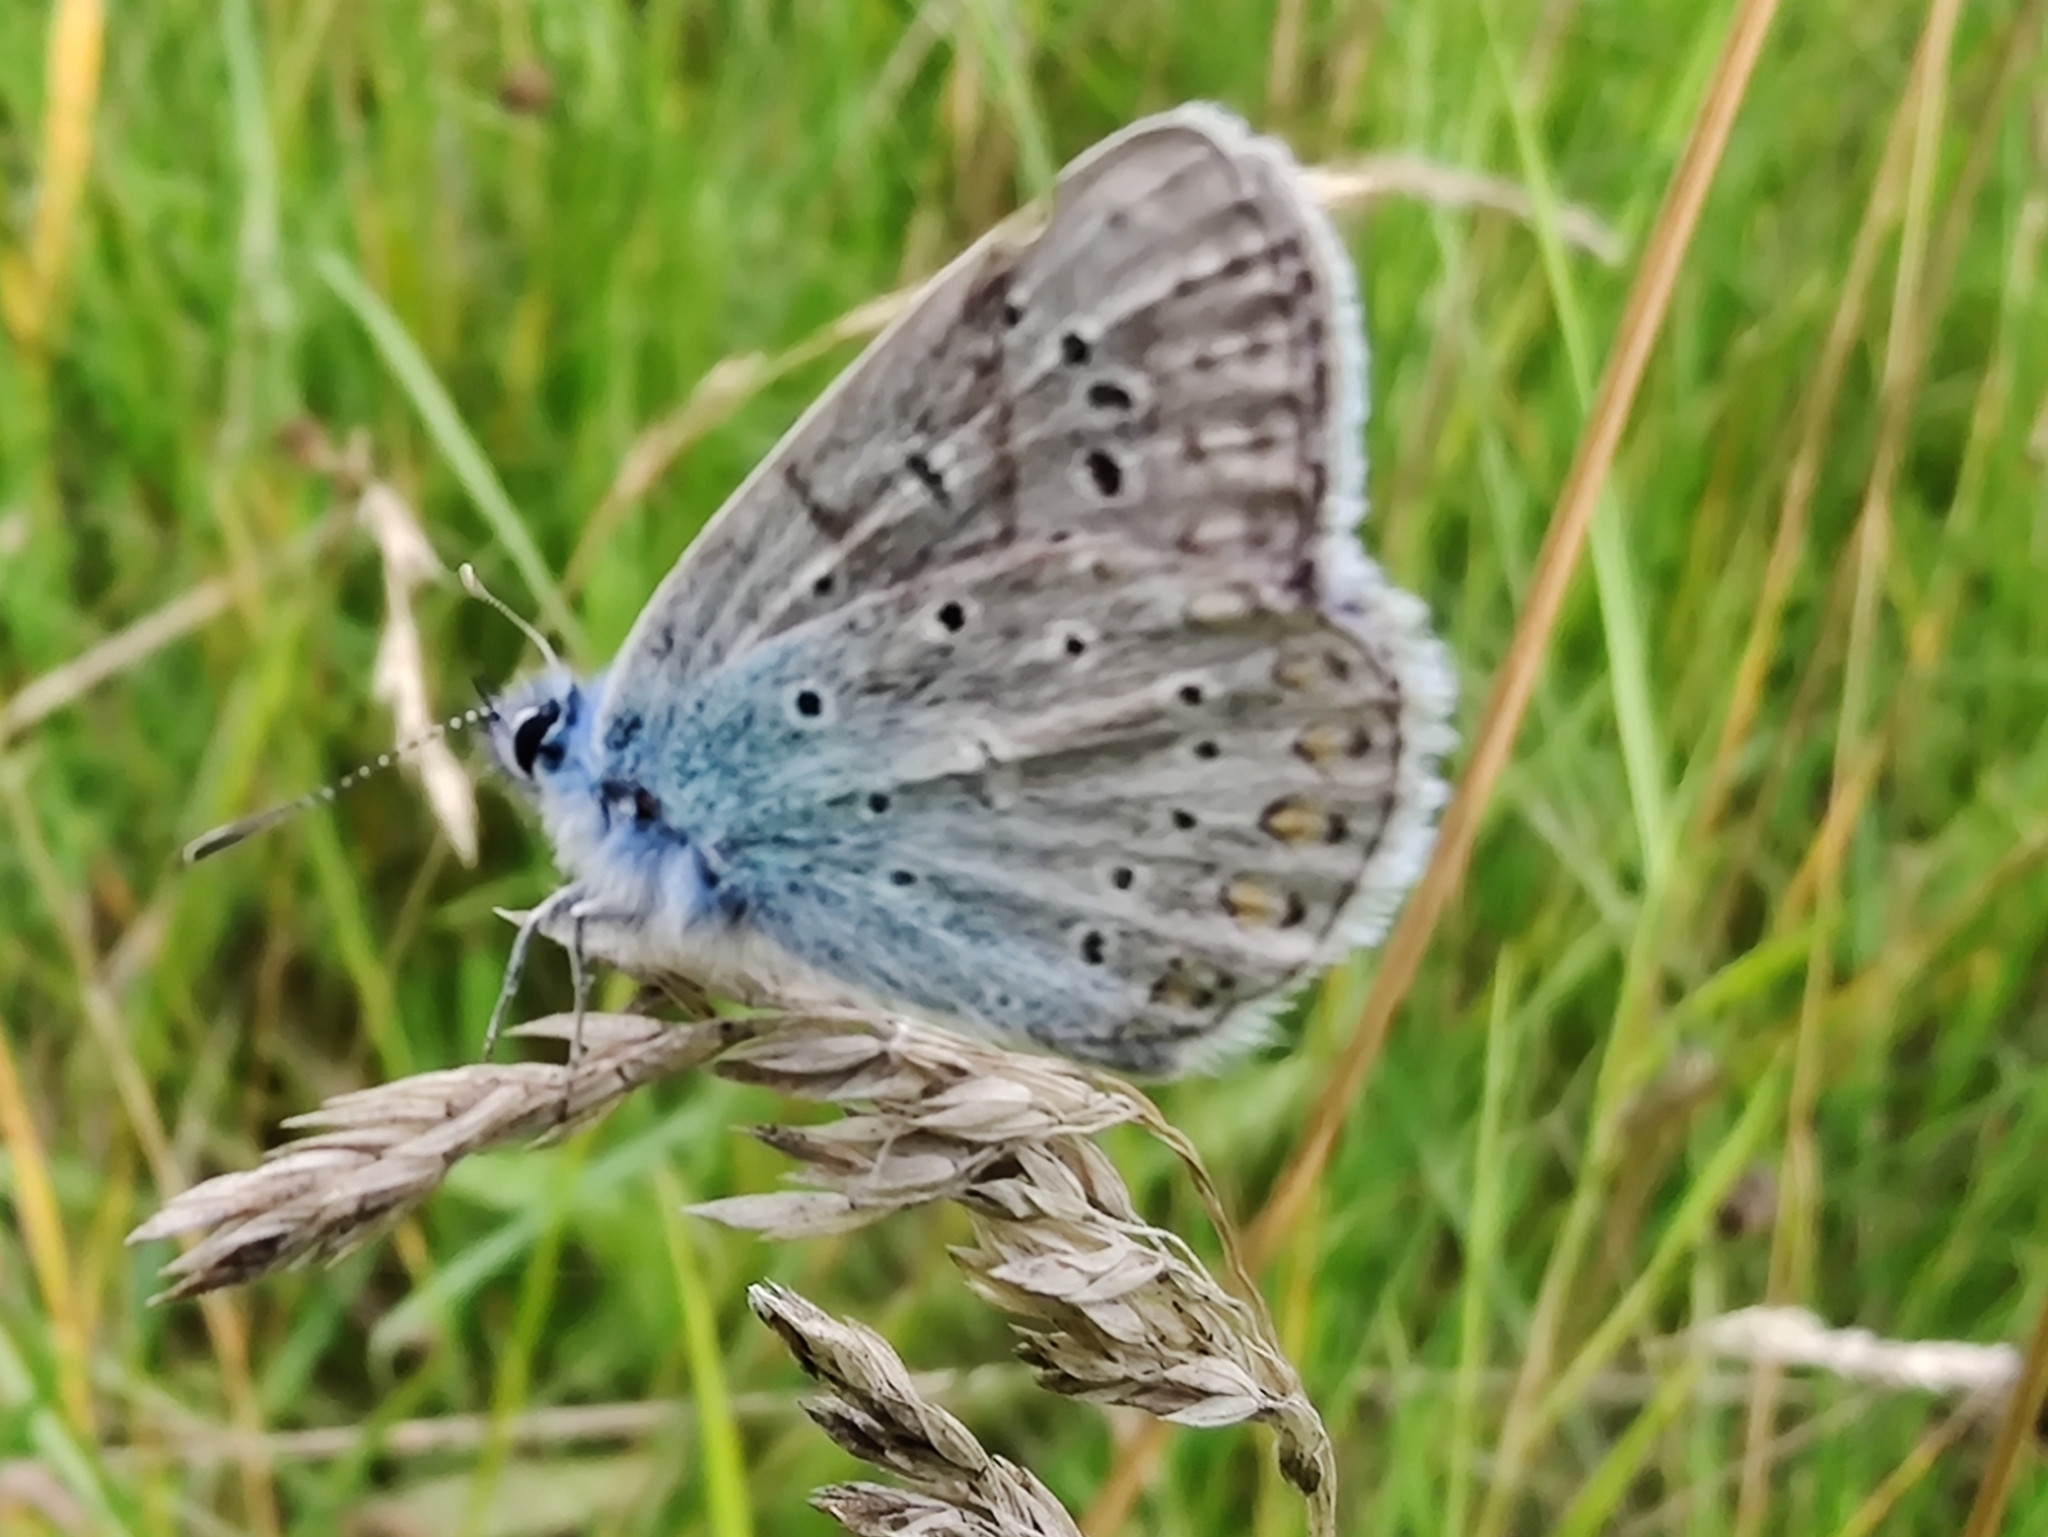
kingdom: Animalia
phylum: Arthropoda
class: Insecta
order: Lepidoptera
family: Lycaenidae
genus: Polyommatus
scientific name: Polyommatus icarus
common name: Common blue
